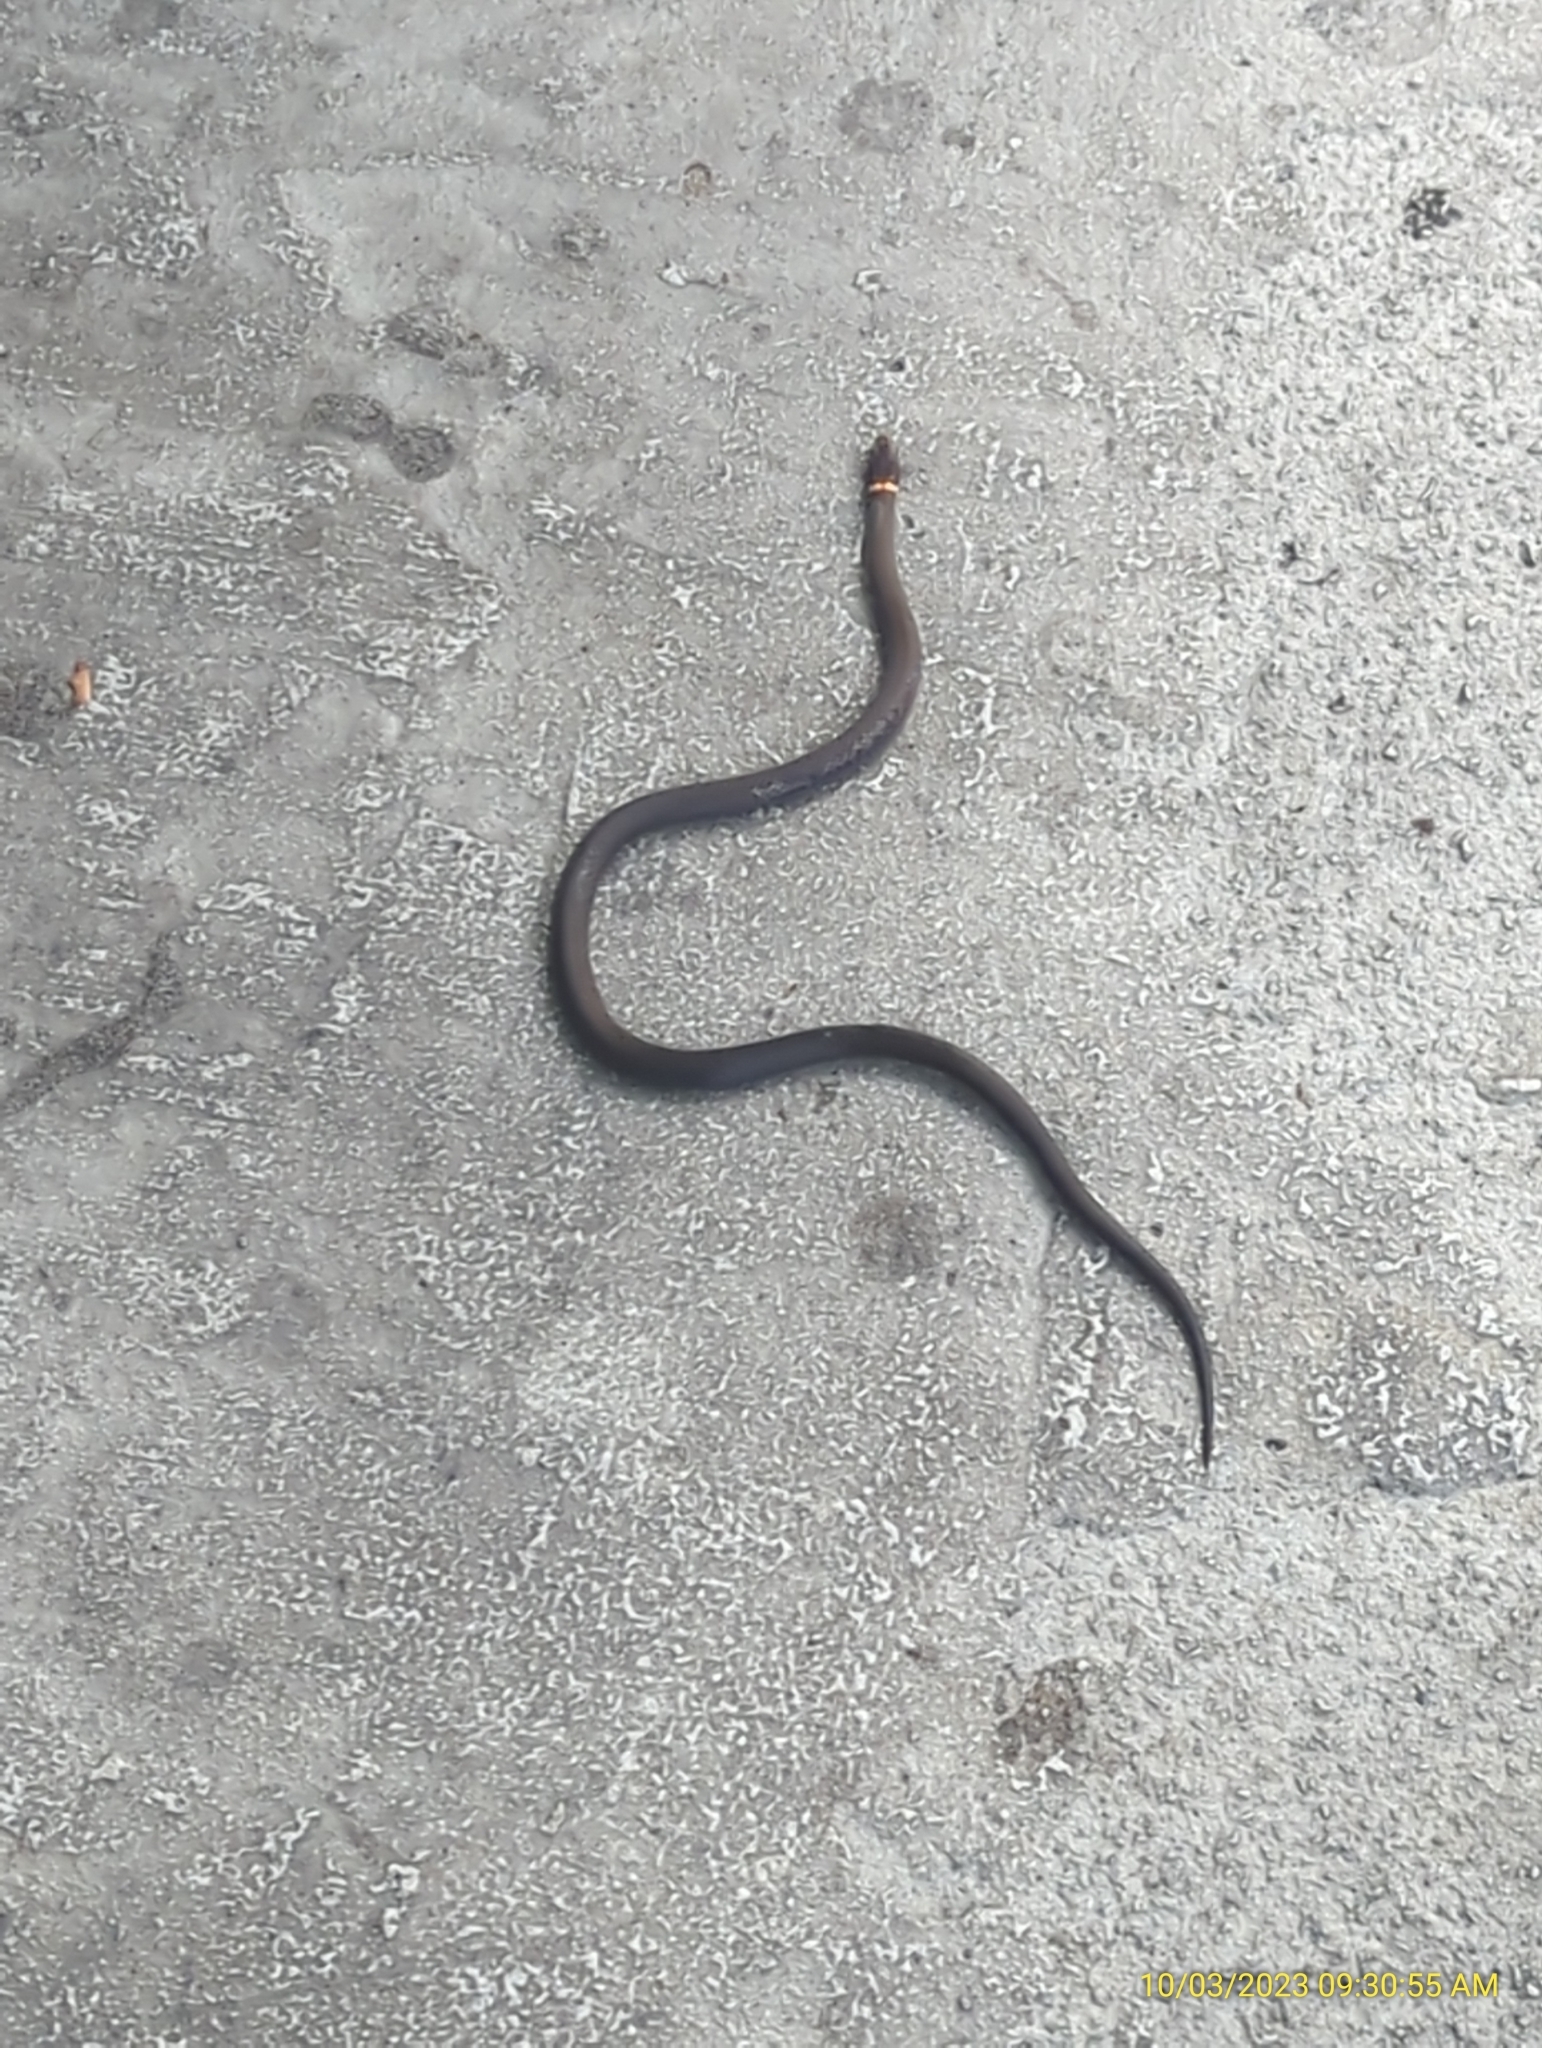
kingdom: Animalia
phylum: Chordata
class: Squamata
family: Colubridae
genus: Diadophis
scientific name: Diadophis punctatus
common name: Ringneck snake
